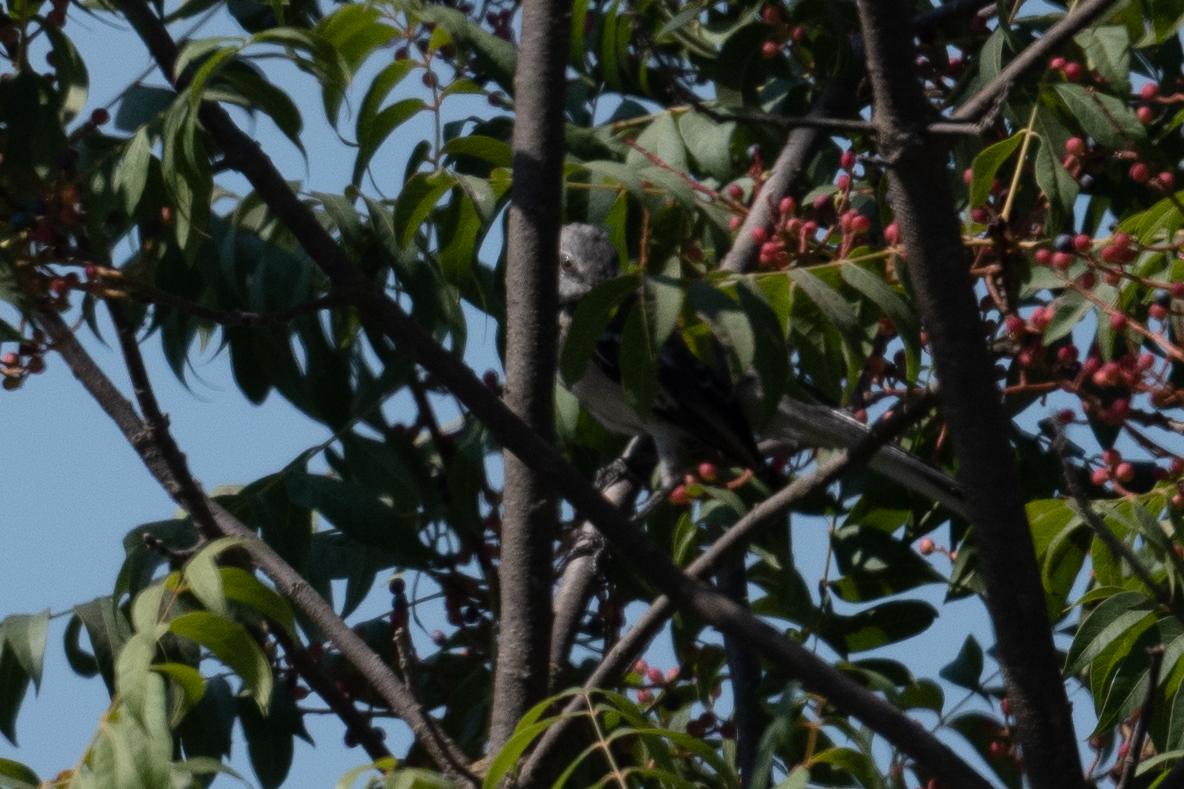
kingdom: Animalia
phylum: Chordata
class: Aves
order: Passeriformes
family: Mimidae
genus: Mimus
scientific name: Mimus polyglottos
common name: Northern mockingbird
